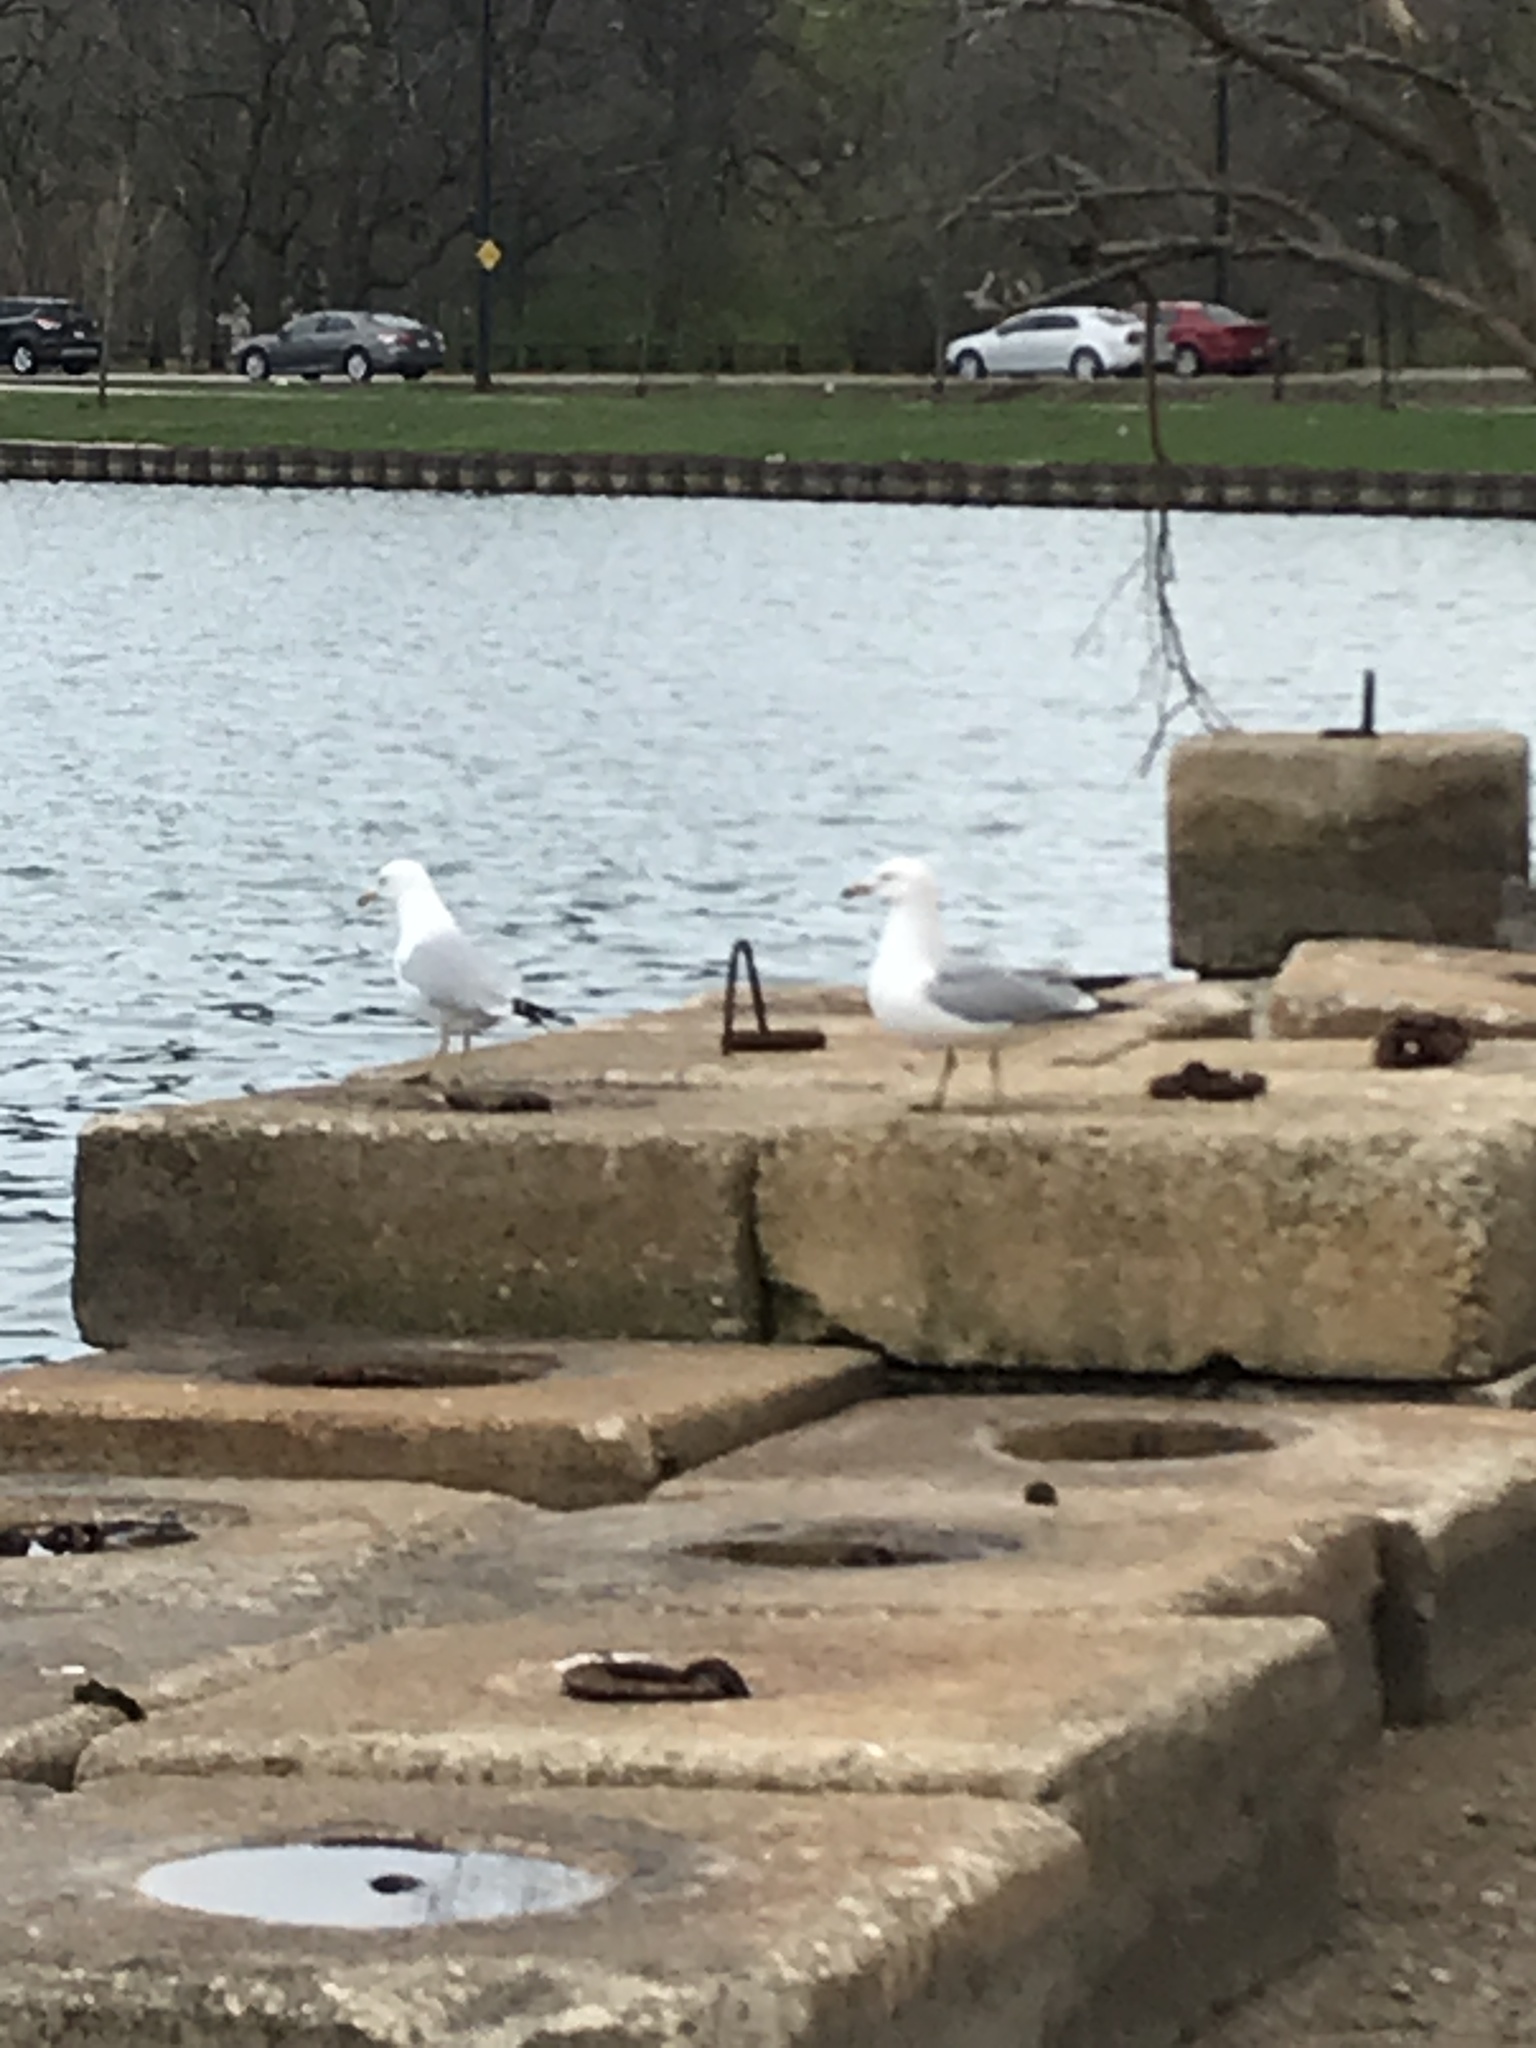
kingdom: Animalia
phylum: Chordata
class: Aves
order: Charadriiformes
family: Laridae
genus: Larus
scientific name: Larus delawarensis
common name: Ring-billed gull
